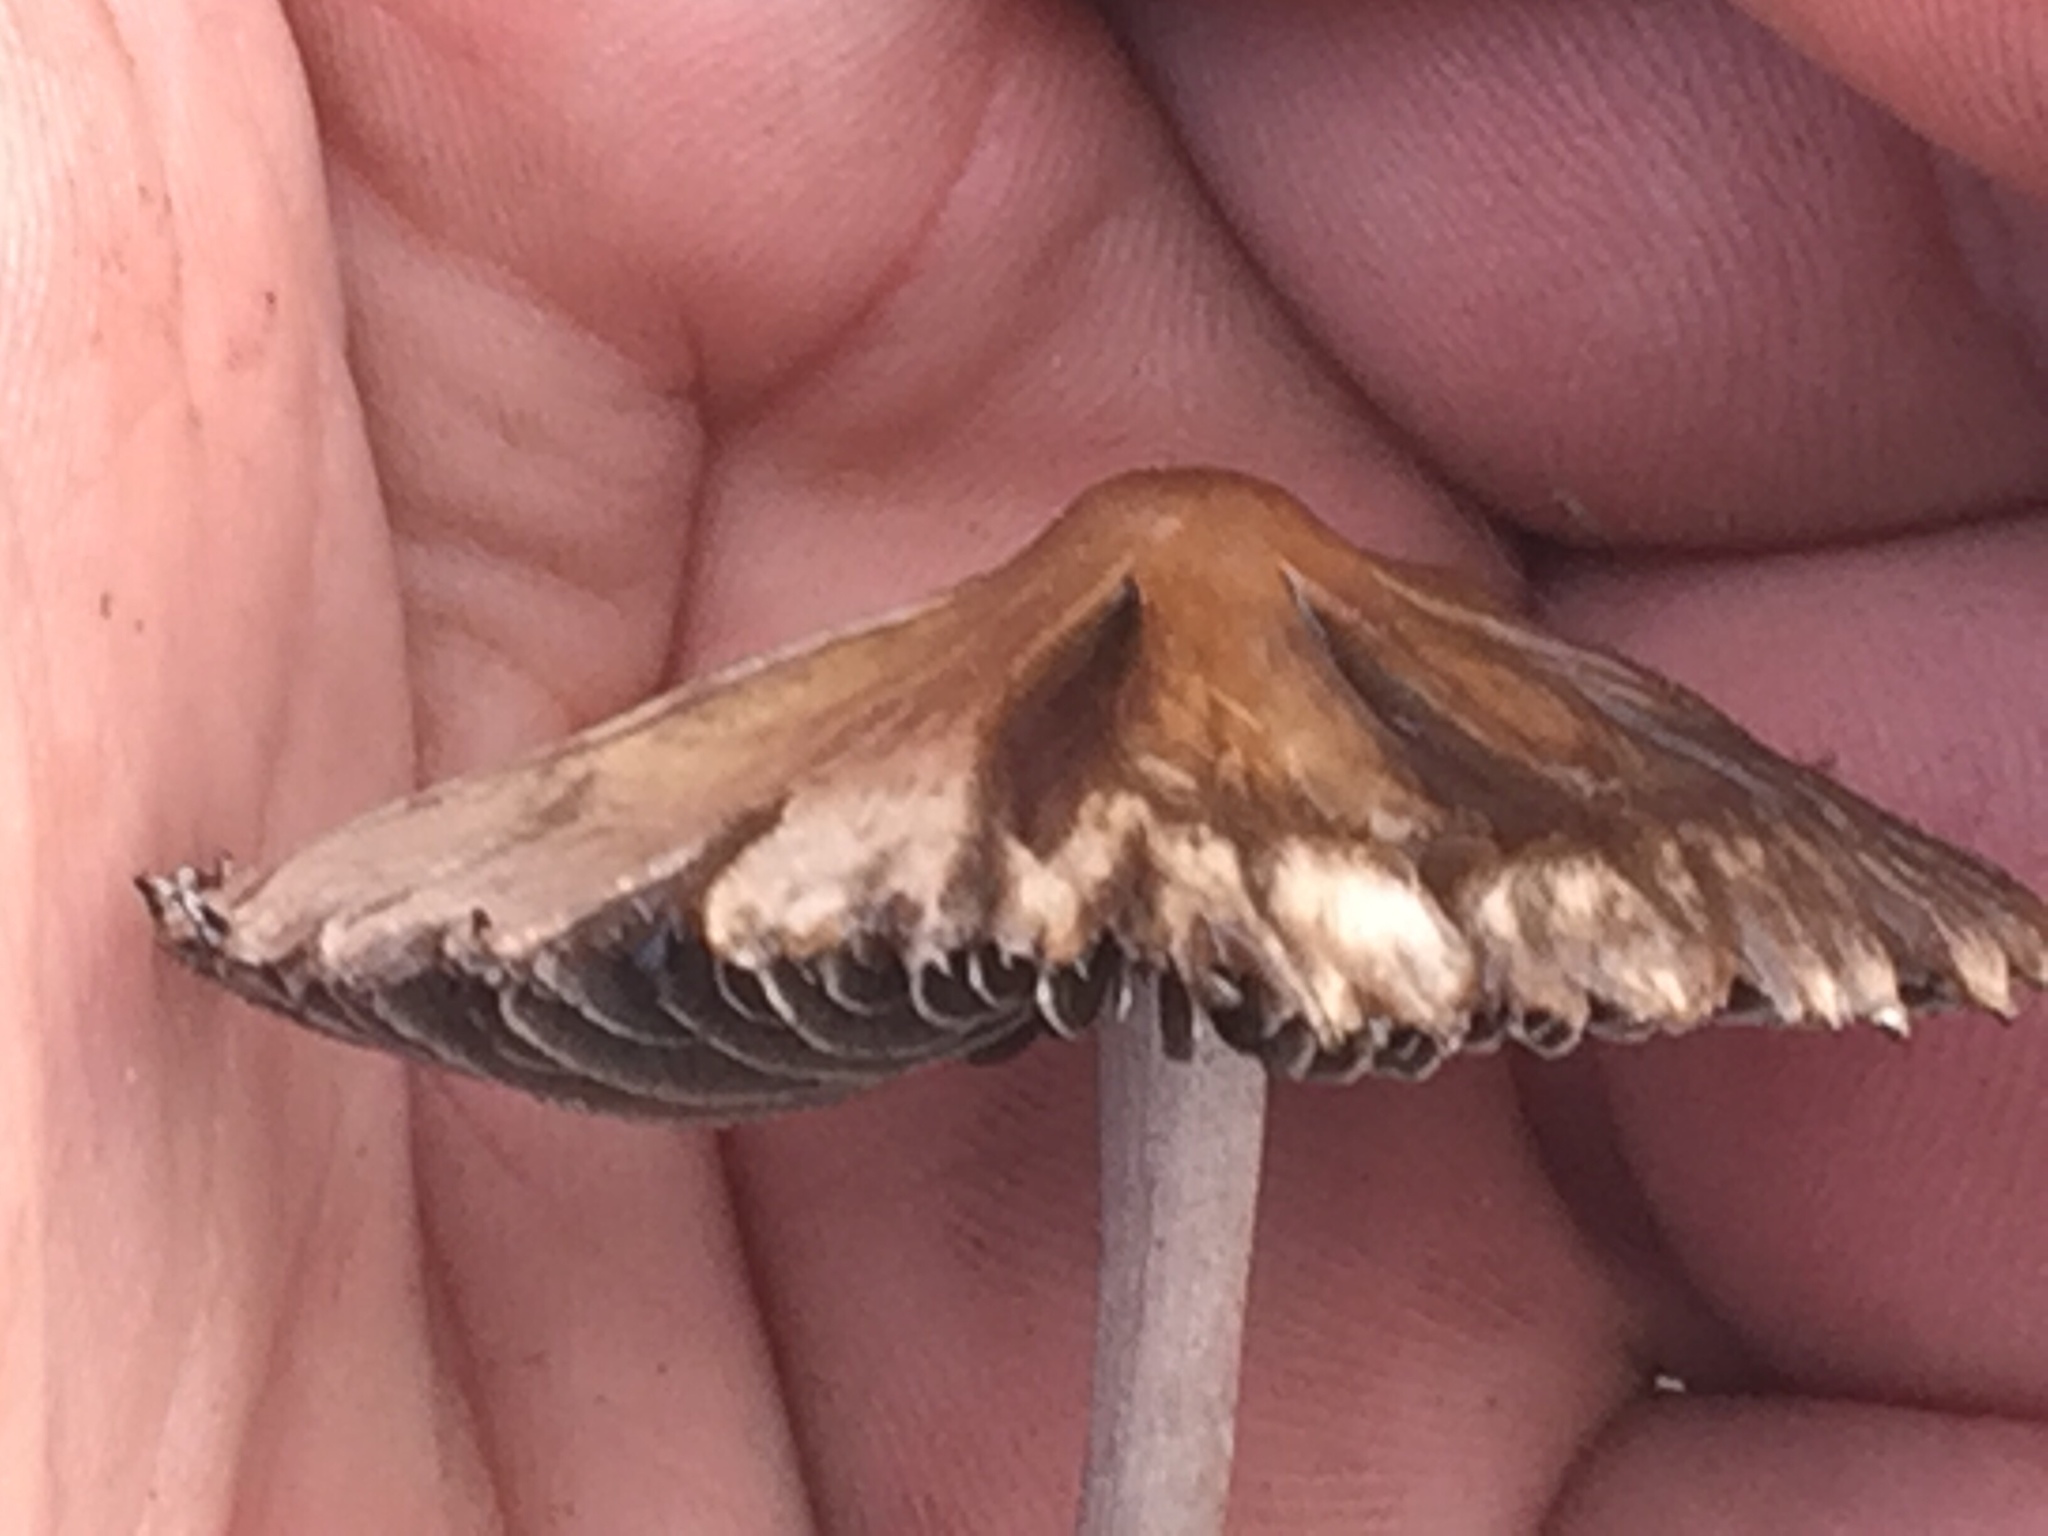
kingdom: Fungi
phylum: Basidiomycota
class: Agaricomycetes
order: Agaricales
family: Bolbitiaceae
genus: Panaeolus
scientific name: Panaeolus papilionaceus
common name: Petticoat mottlegill
